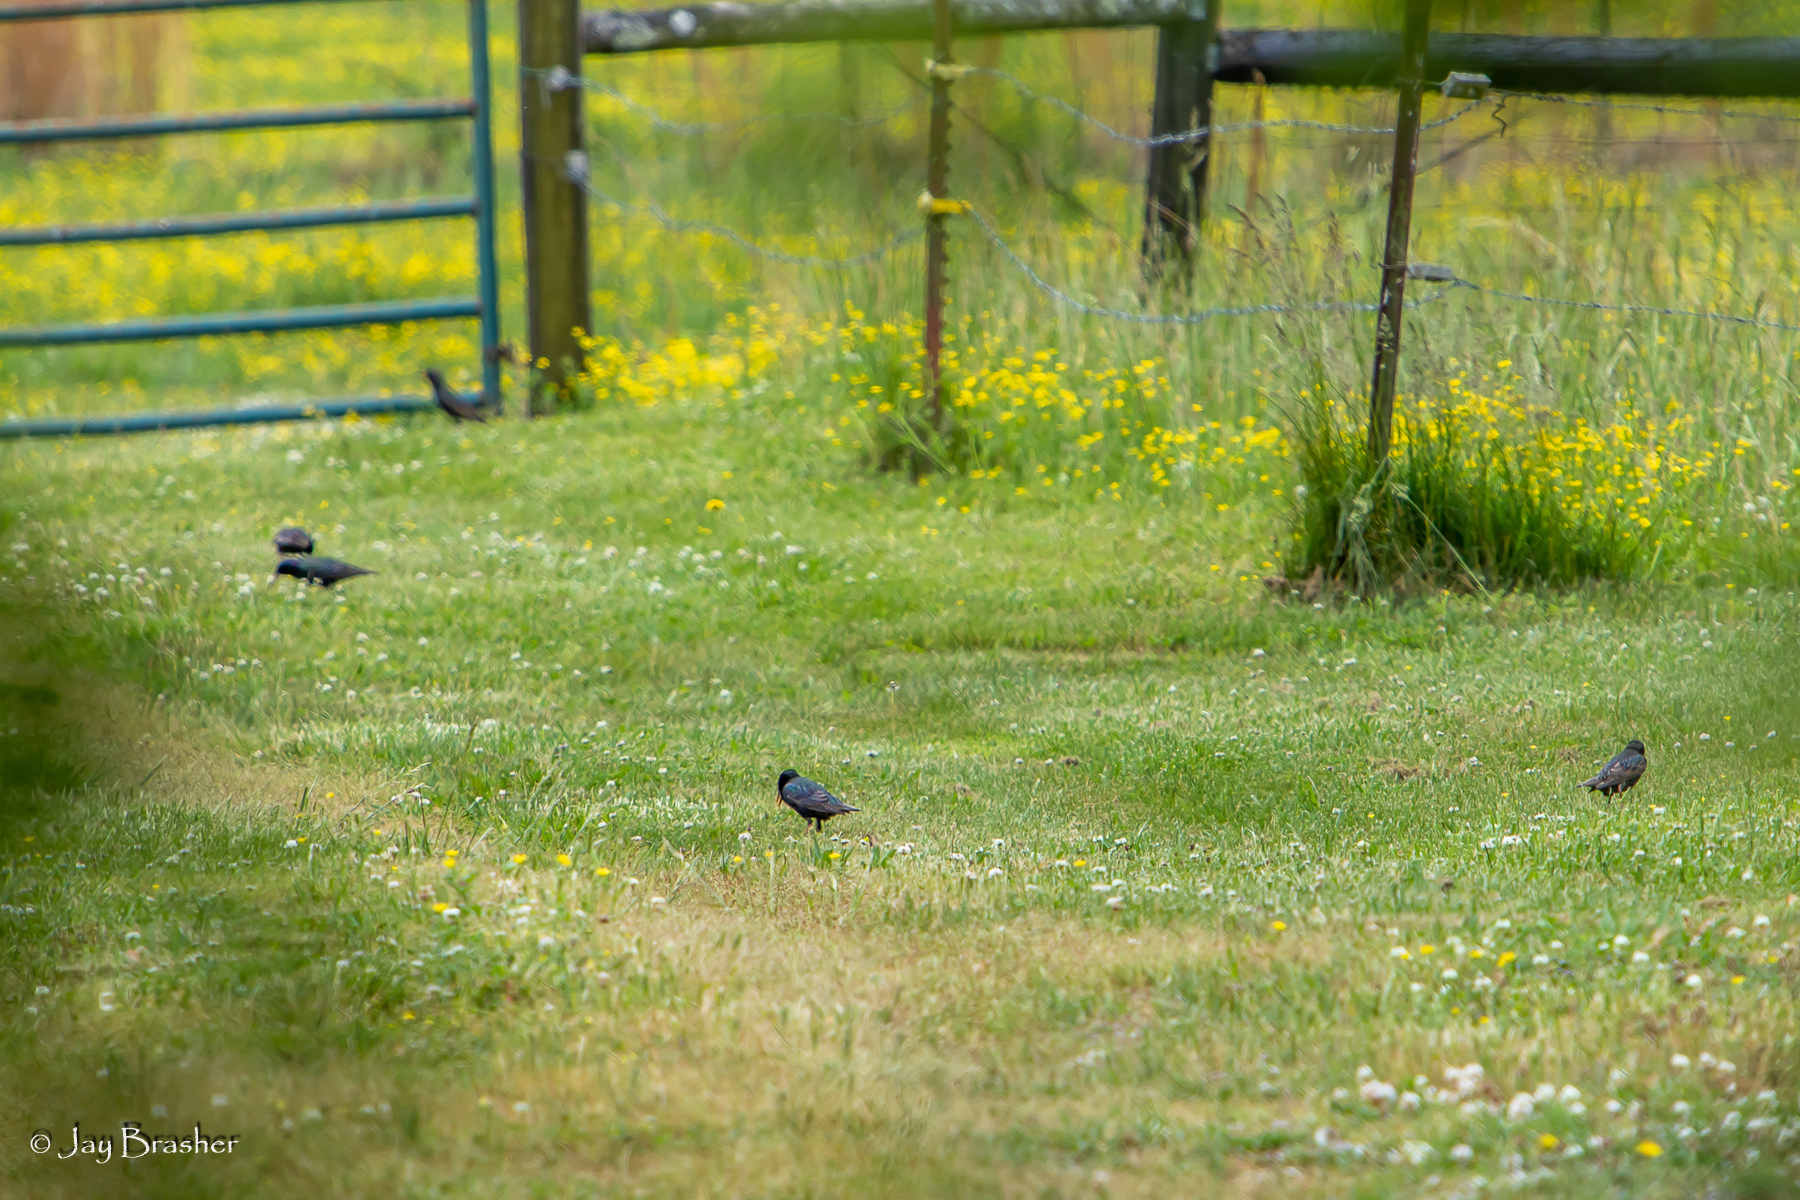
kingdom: Animalia
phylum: Chordata
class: Aves
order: Passeriformes
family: Sturnidae
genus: Sturnus
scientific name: Sturnus vulgaris
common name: Common starling
